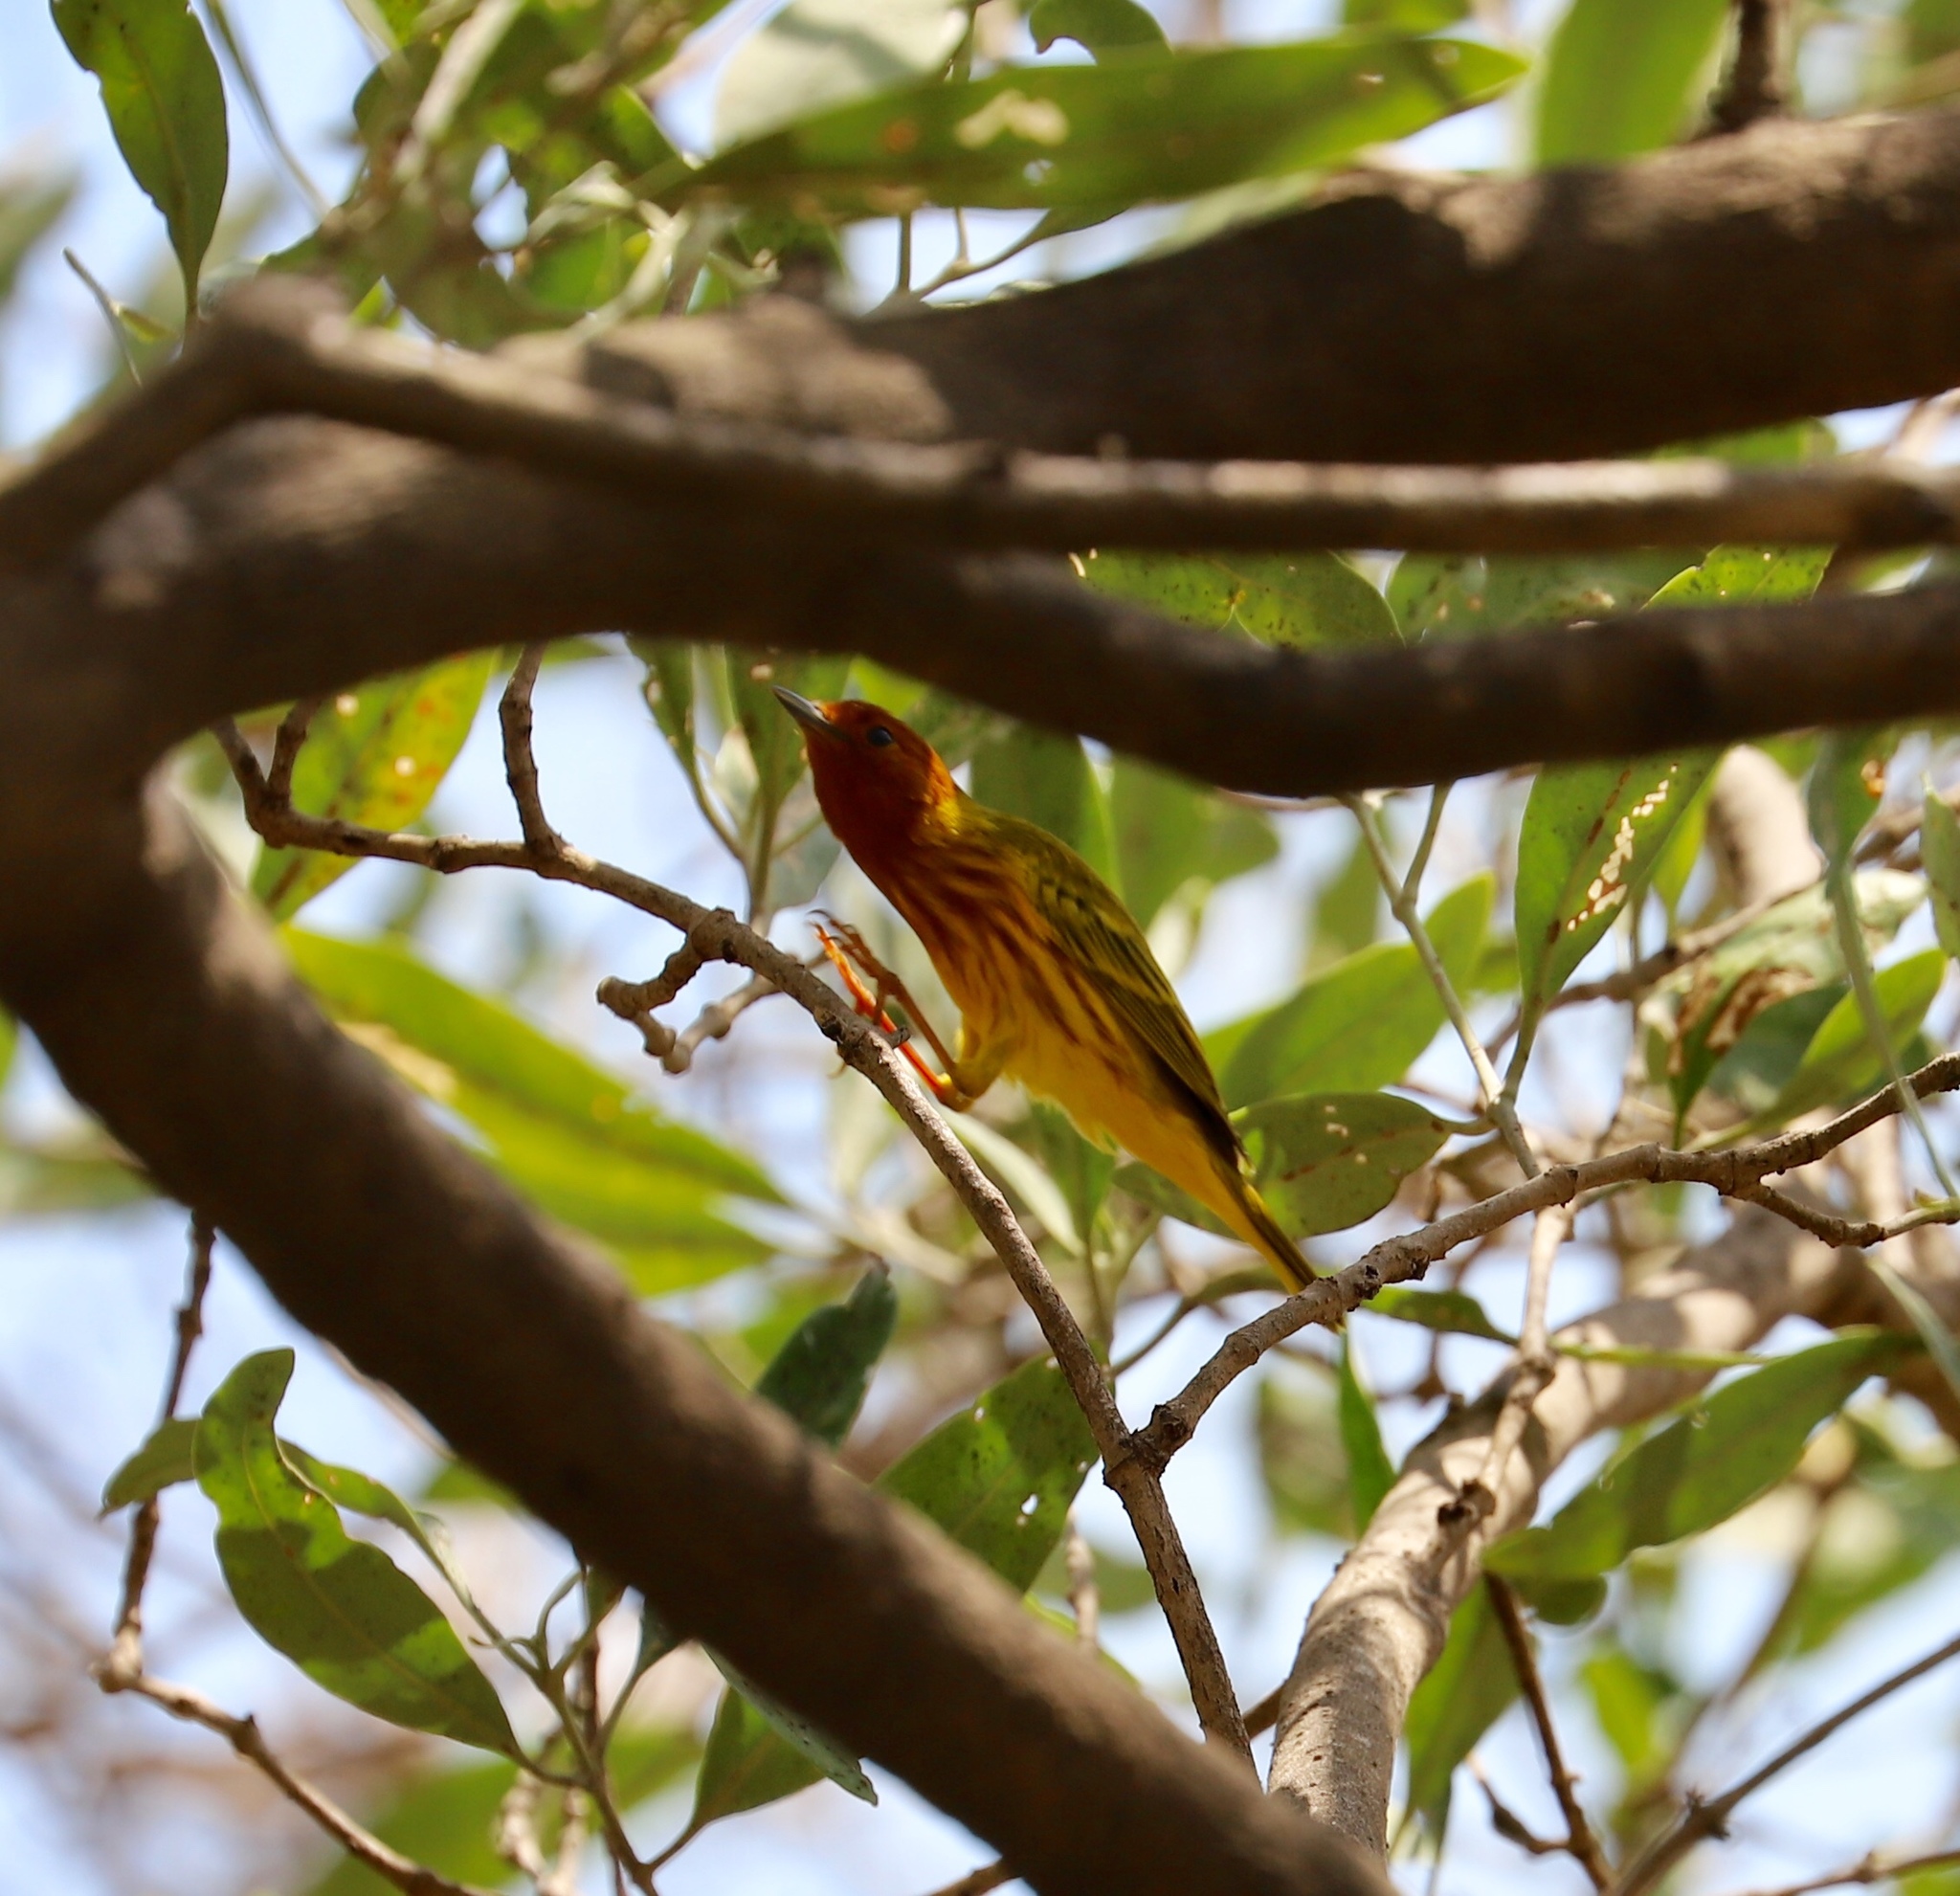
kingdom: Animalia
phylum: Chordata
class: Aves
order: Passeriformes
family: Parulidae
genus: Setophaga
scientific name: Setophaga petechia
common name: Yellow warbler
